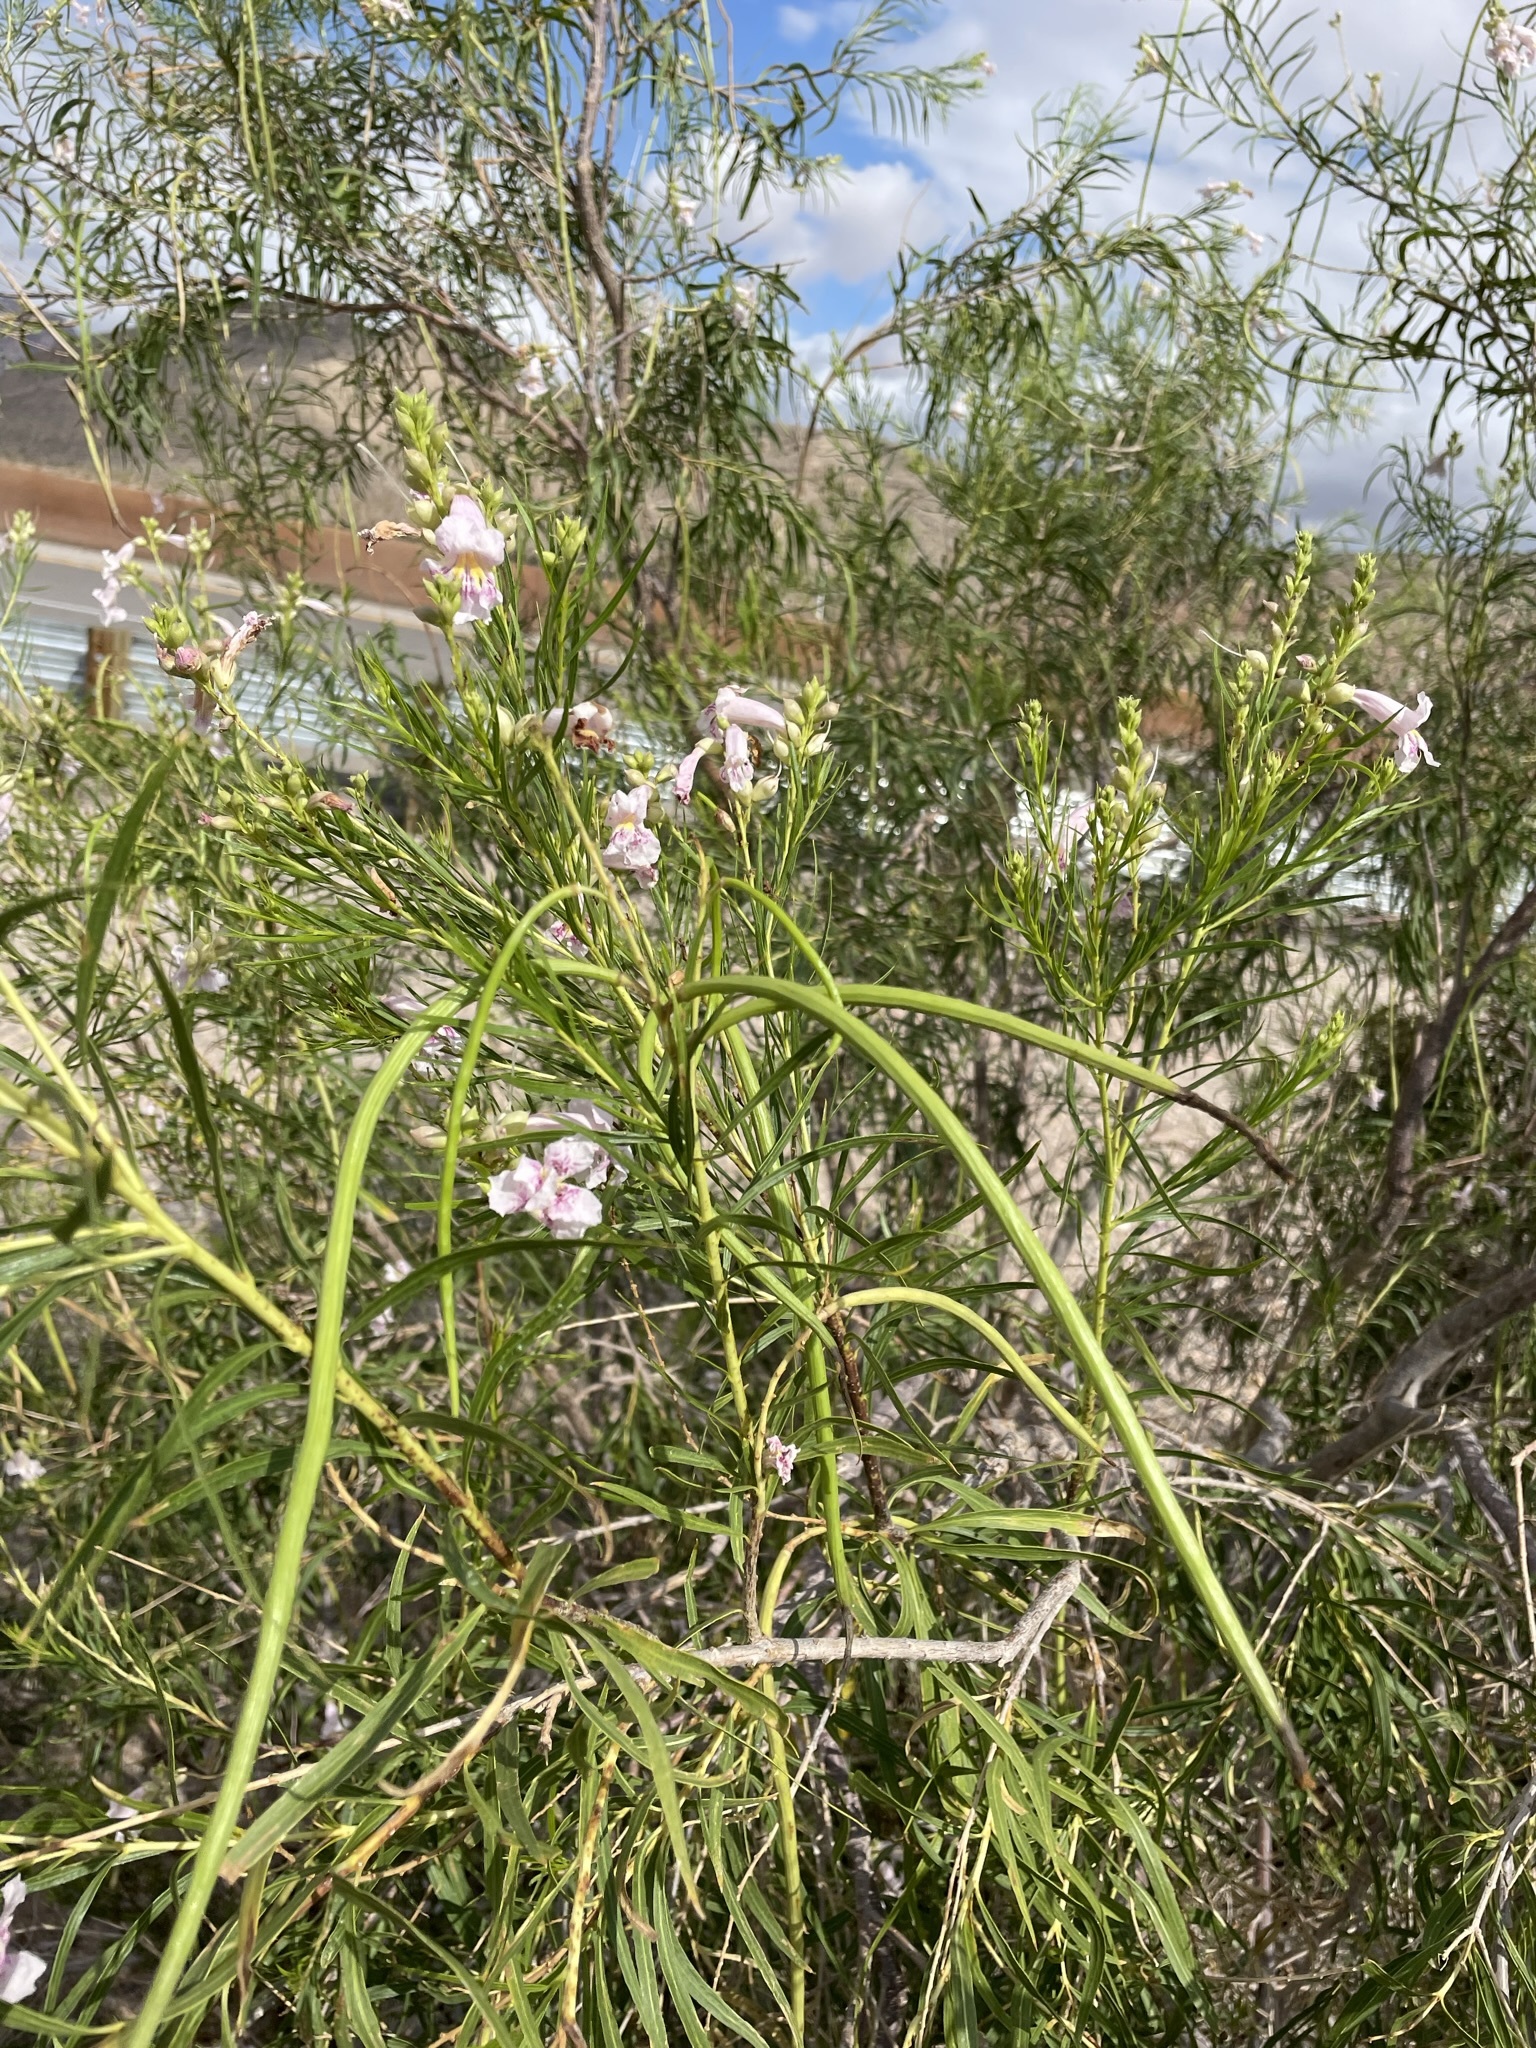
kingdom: Plantae
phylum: Tracheophyta
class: Magnoliopsida
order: Lamiales
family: Bignoniaceae
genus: Chilopsis
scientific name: Chilopsis linearis
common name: Desert-willow
